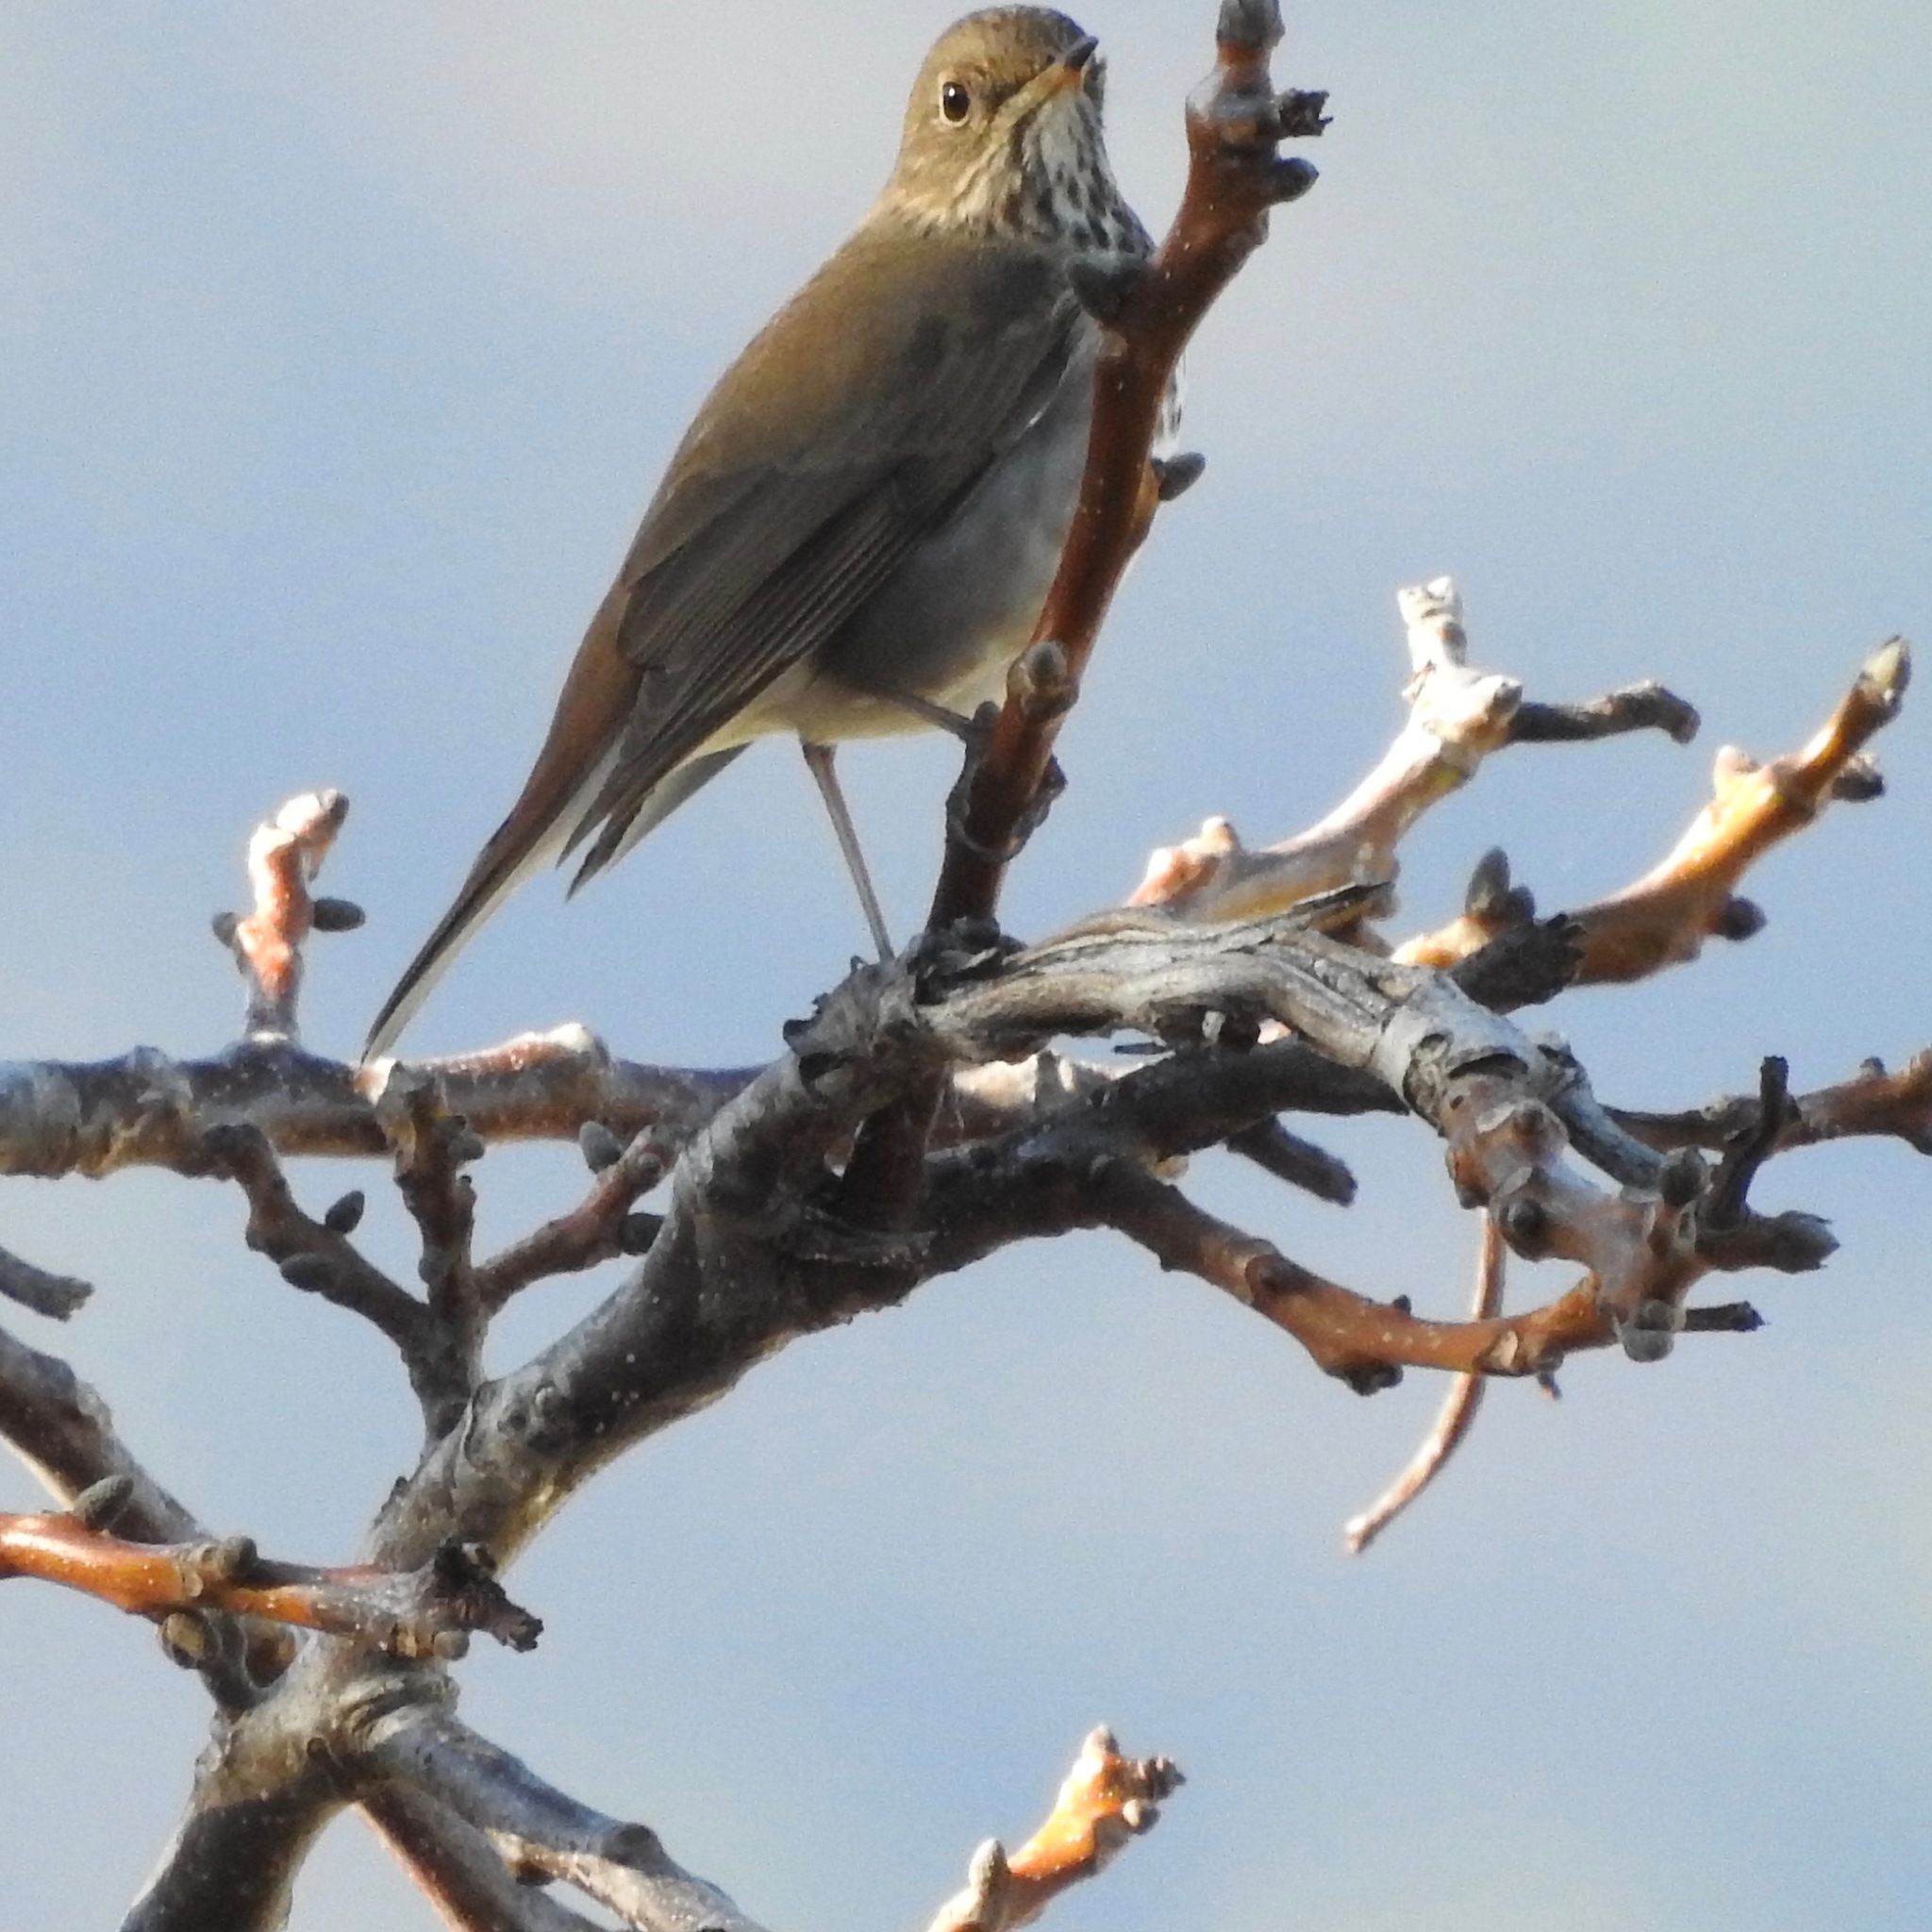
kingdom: Animalia
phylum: Chordata
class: Aves
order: Passeriformes
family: Turdidae
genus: Catharus
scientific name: Catharus guttatus
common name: Hermit thrush
